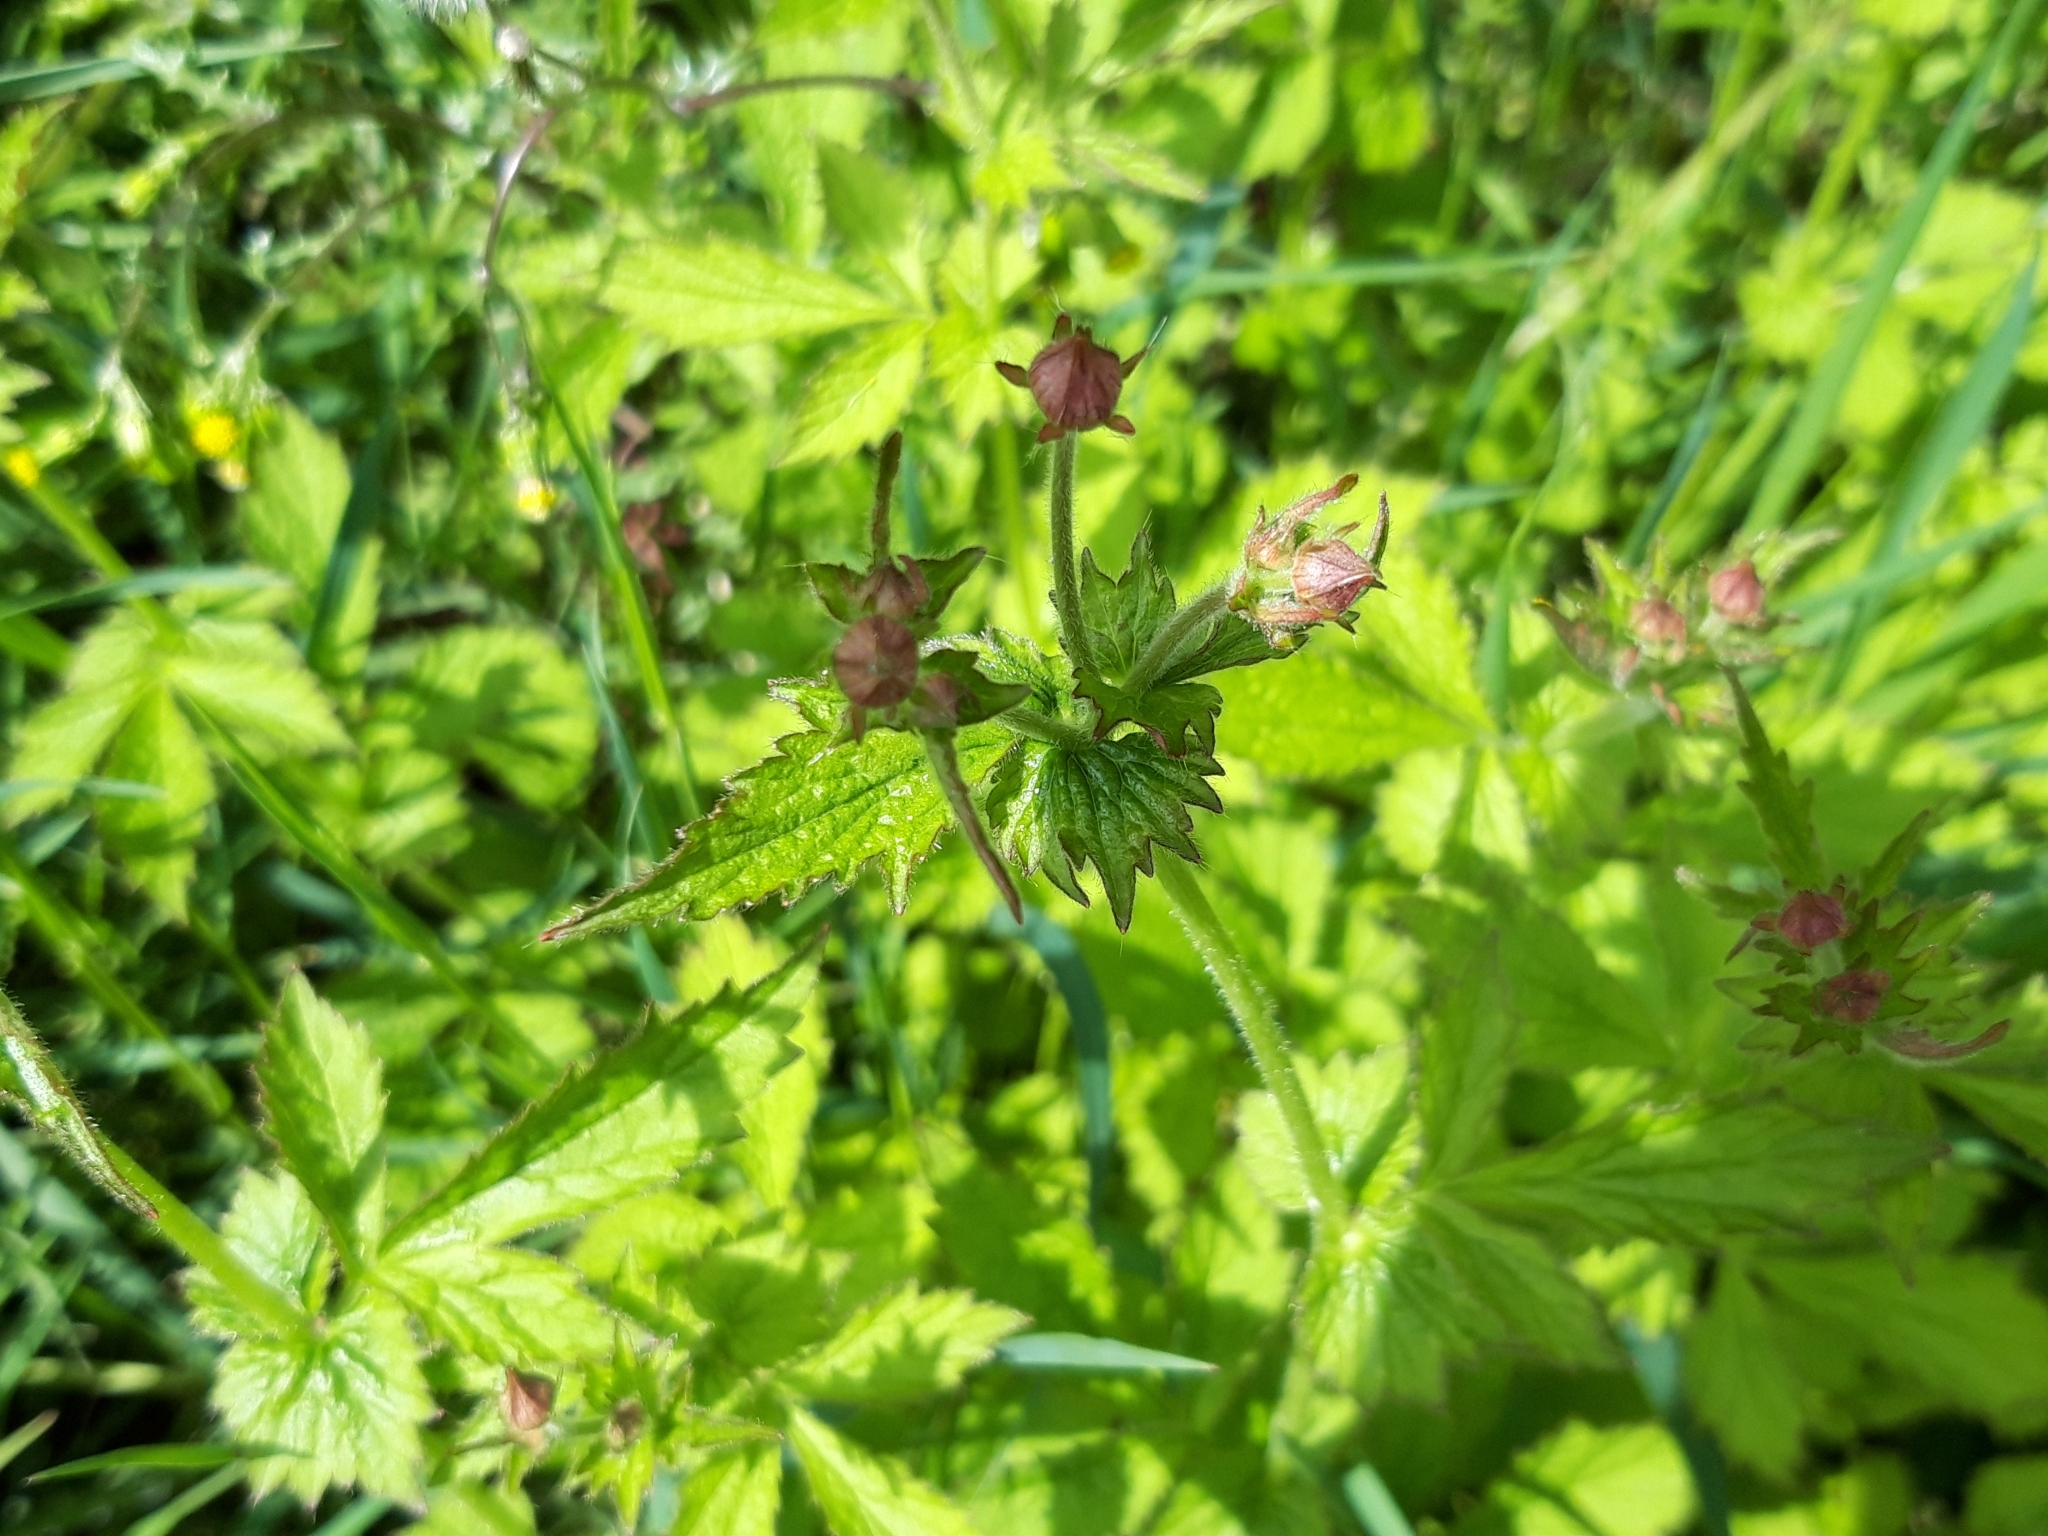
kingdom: Plantae
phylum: Tracheophyta
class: Magnoliopsida
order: Rosales
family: Rosaceae
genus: Geum
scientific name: Geum urbanum
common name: Wood avens
